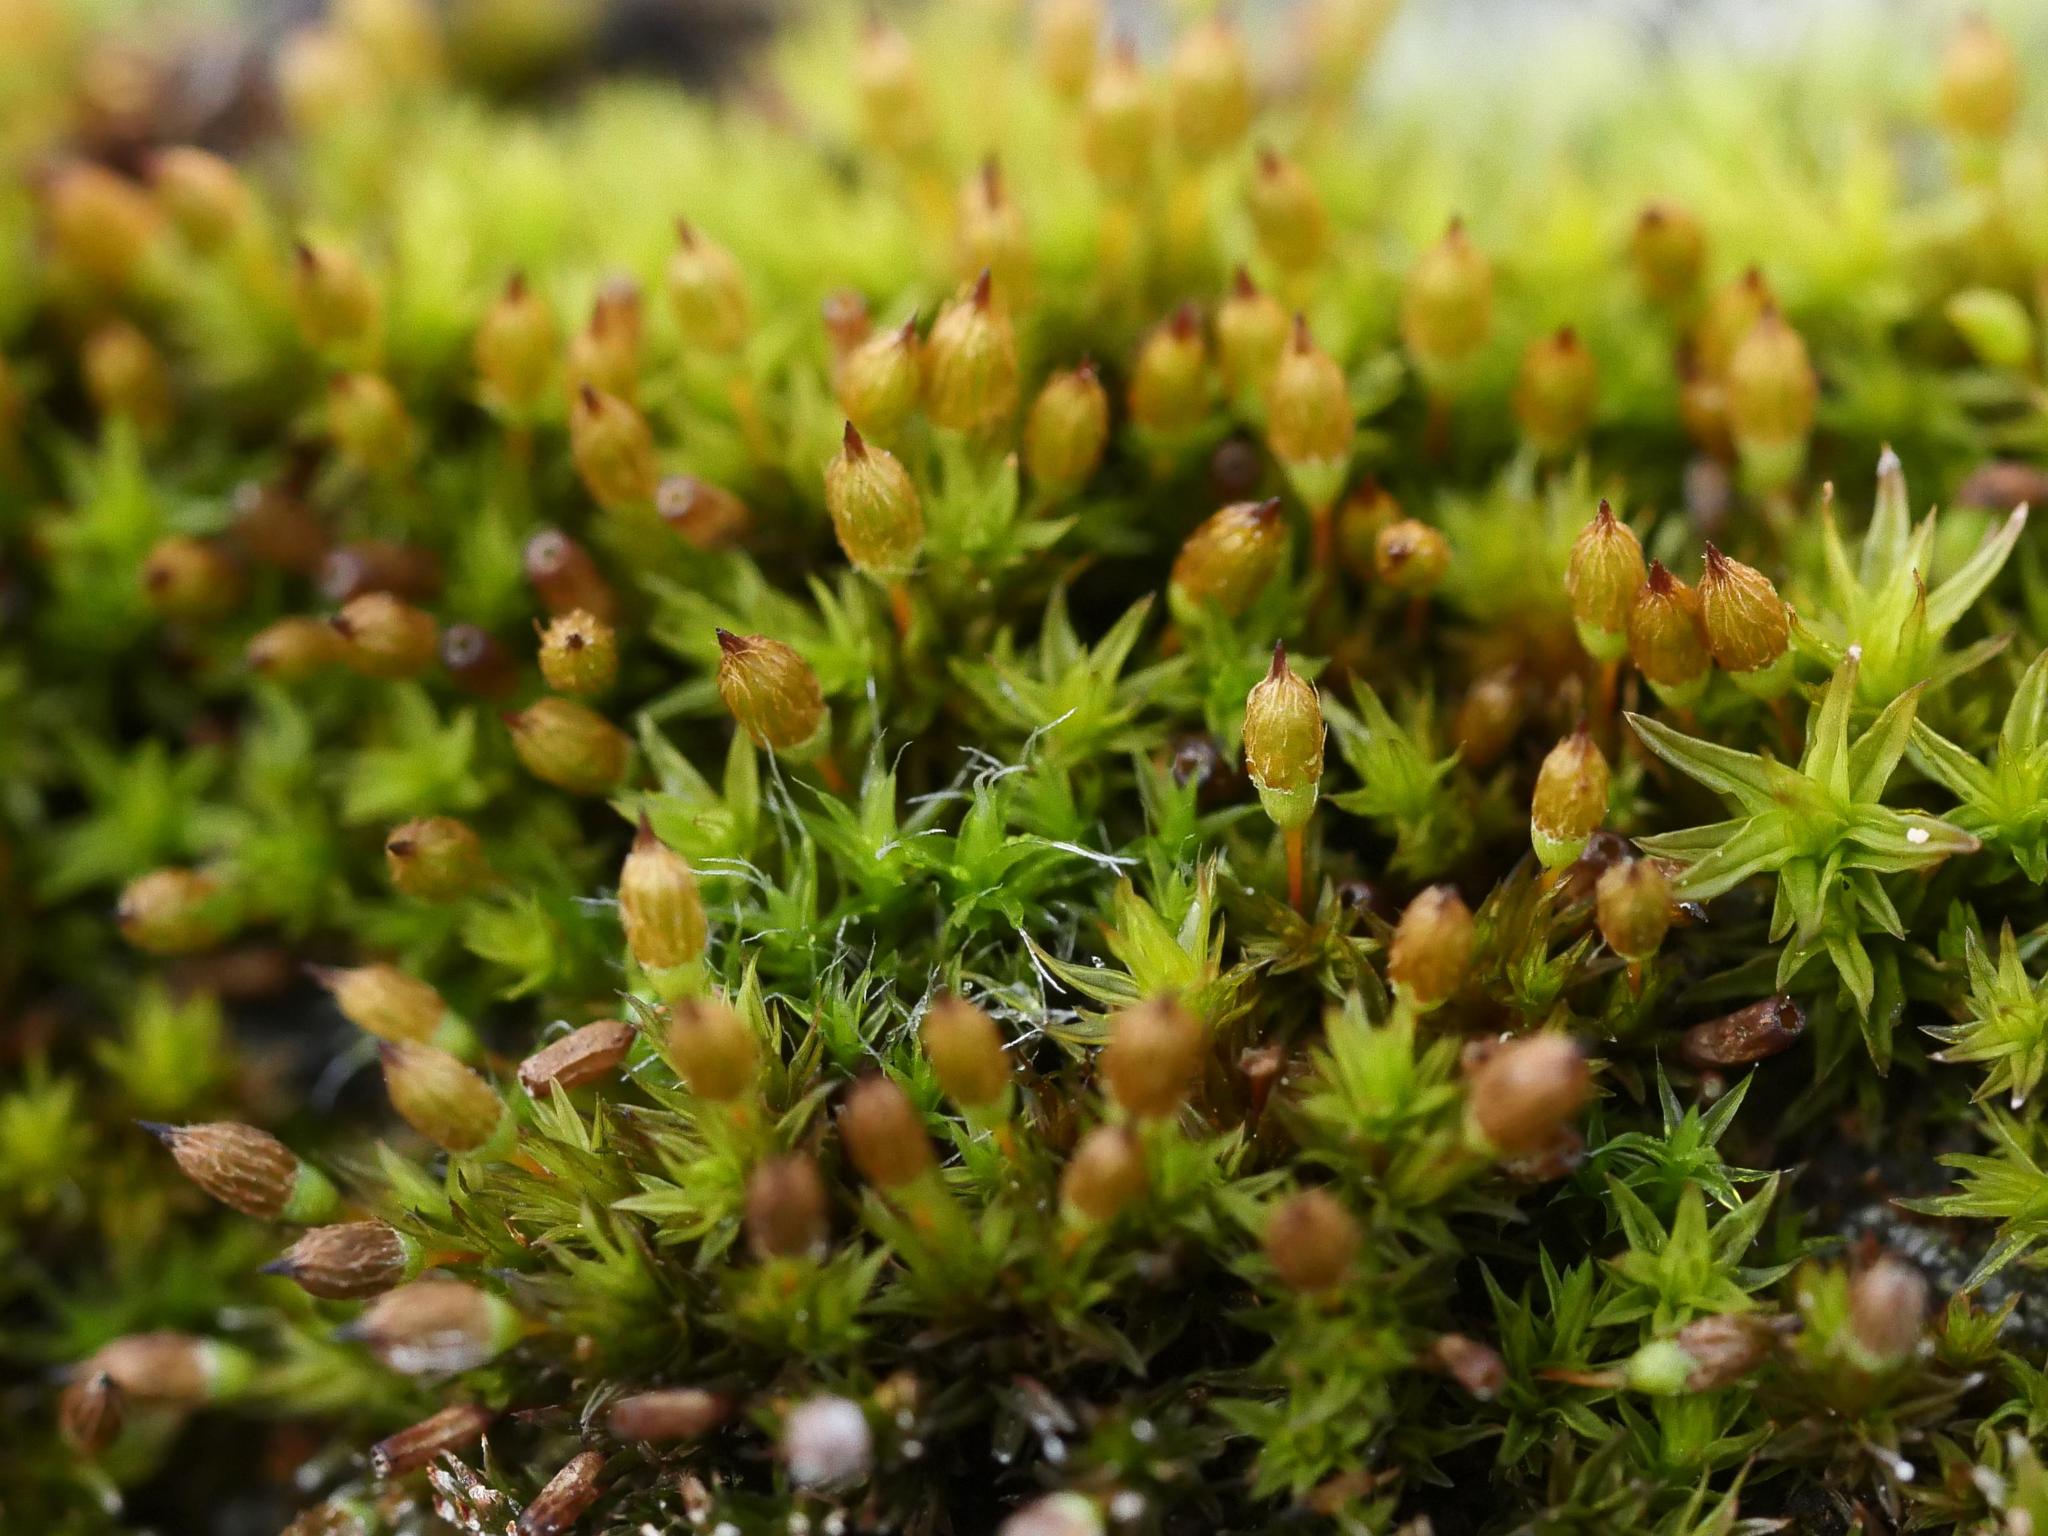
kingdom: Plantae
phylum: Bryophyta
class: Bryopsida
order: Orthotrichales
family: Orthotrichaceae
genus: Orthotrichum
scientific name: Orthotrichum anomalum
